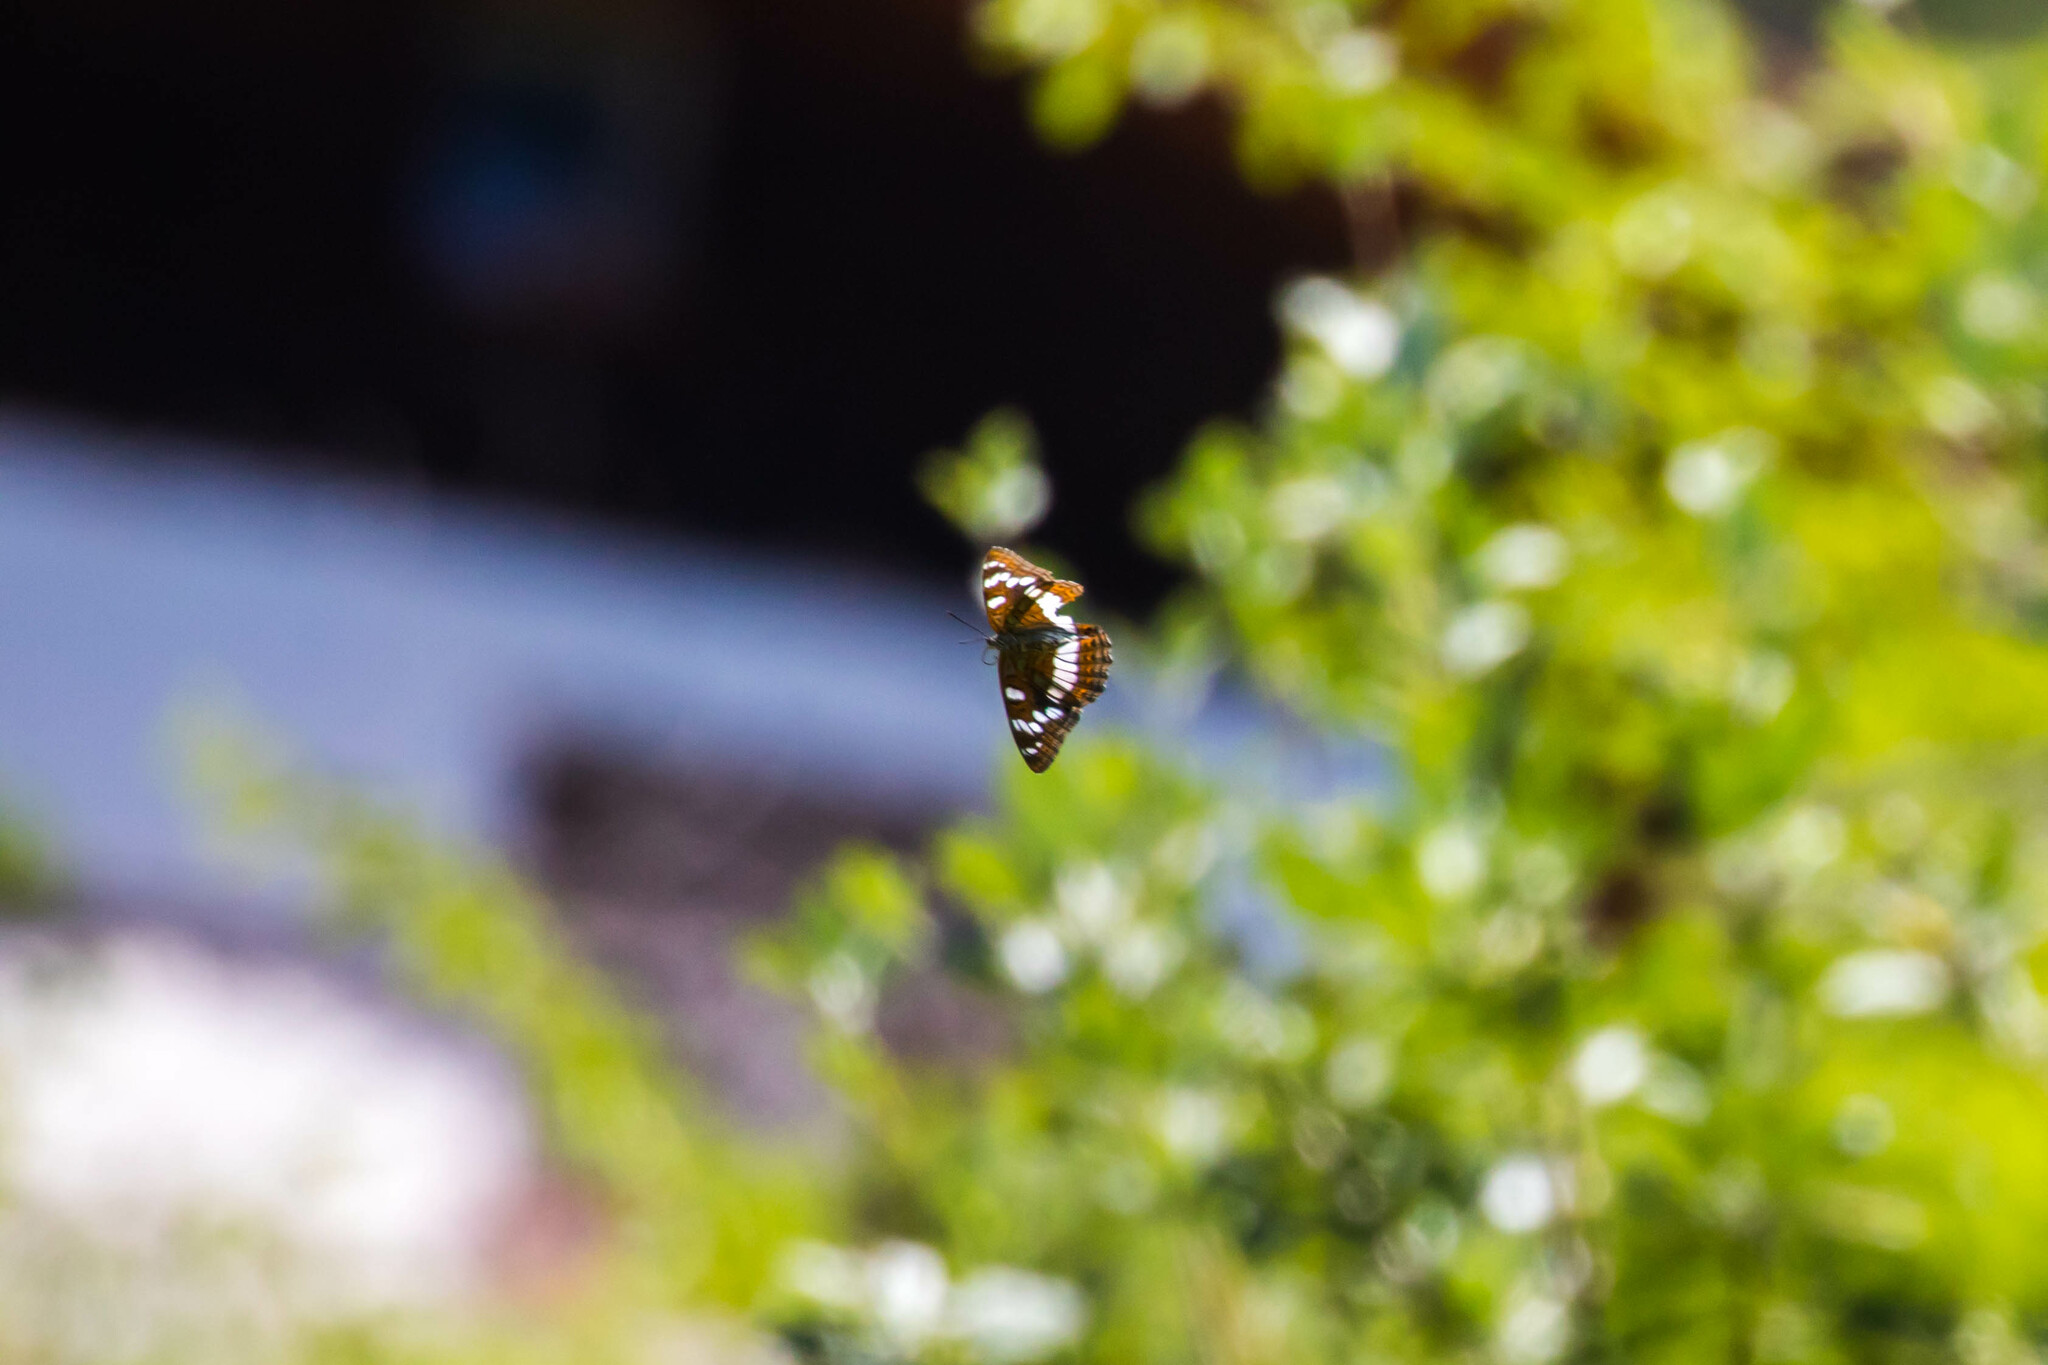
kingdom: Animalia
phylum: Arthropoda
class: Insecta
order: Lepidoptera
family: Nymphalidae
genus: Limenitis
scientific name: Limenitis populi
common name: Poplar admiral
